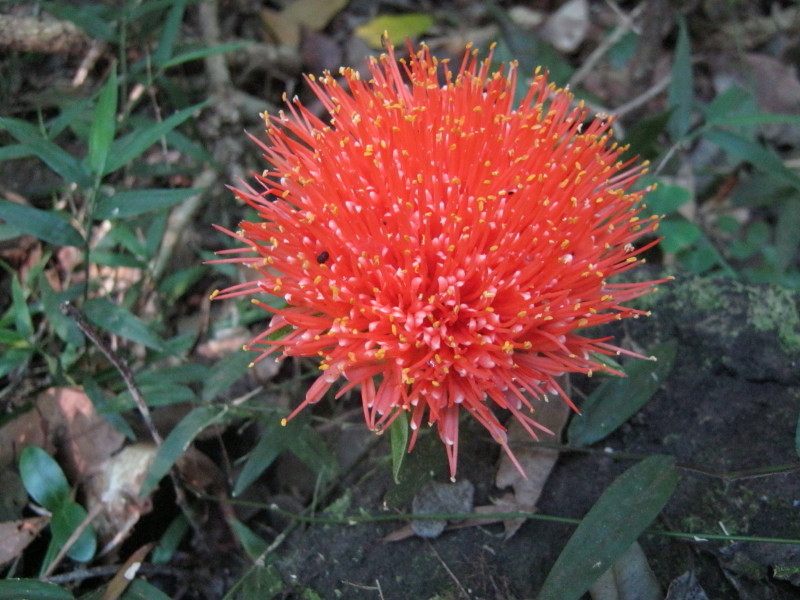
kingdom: Plantae
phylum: Tracheophyta
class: Liliopsida
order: Asparagales
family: Amaryllidaceae
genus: Scadoxus
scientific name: Scadoxus puniceus
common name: Royal-paintbrush
